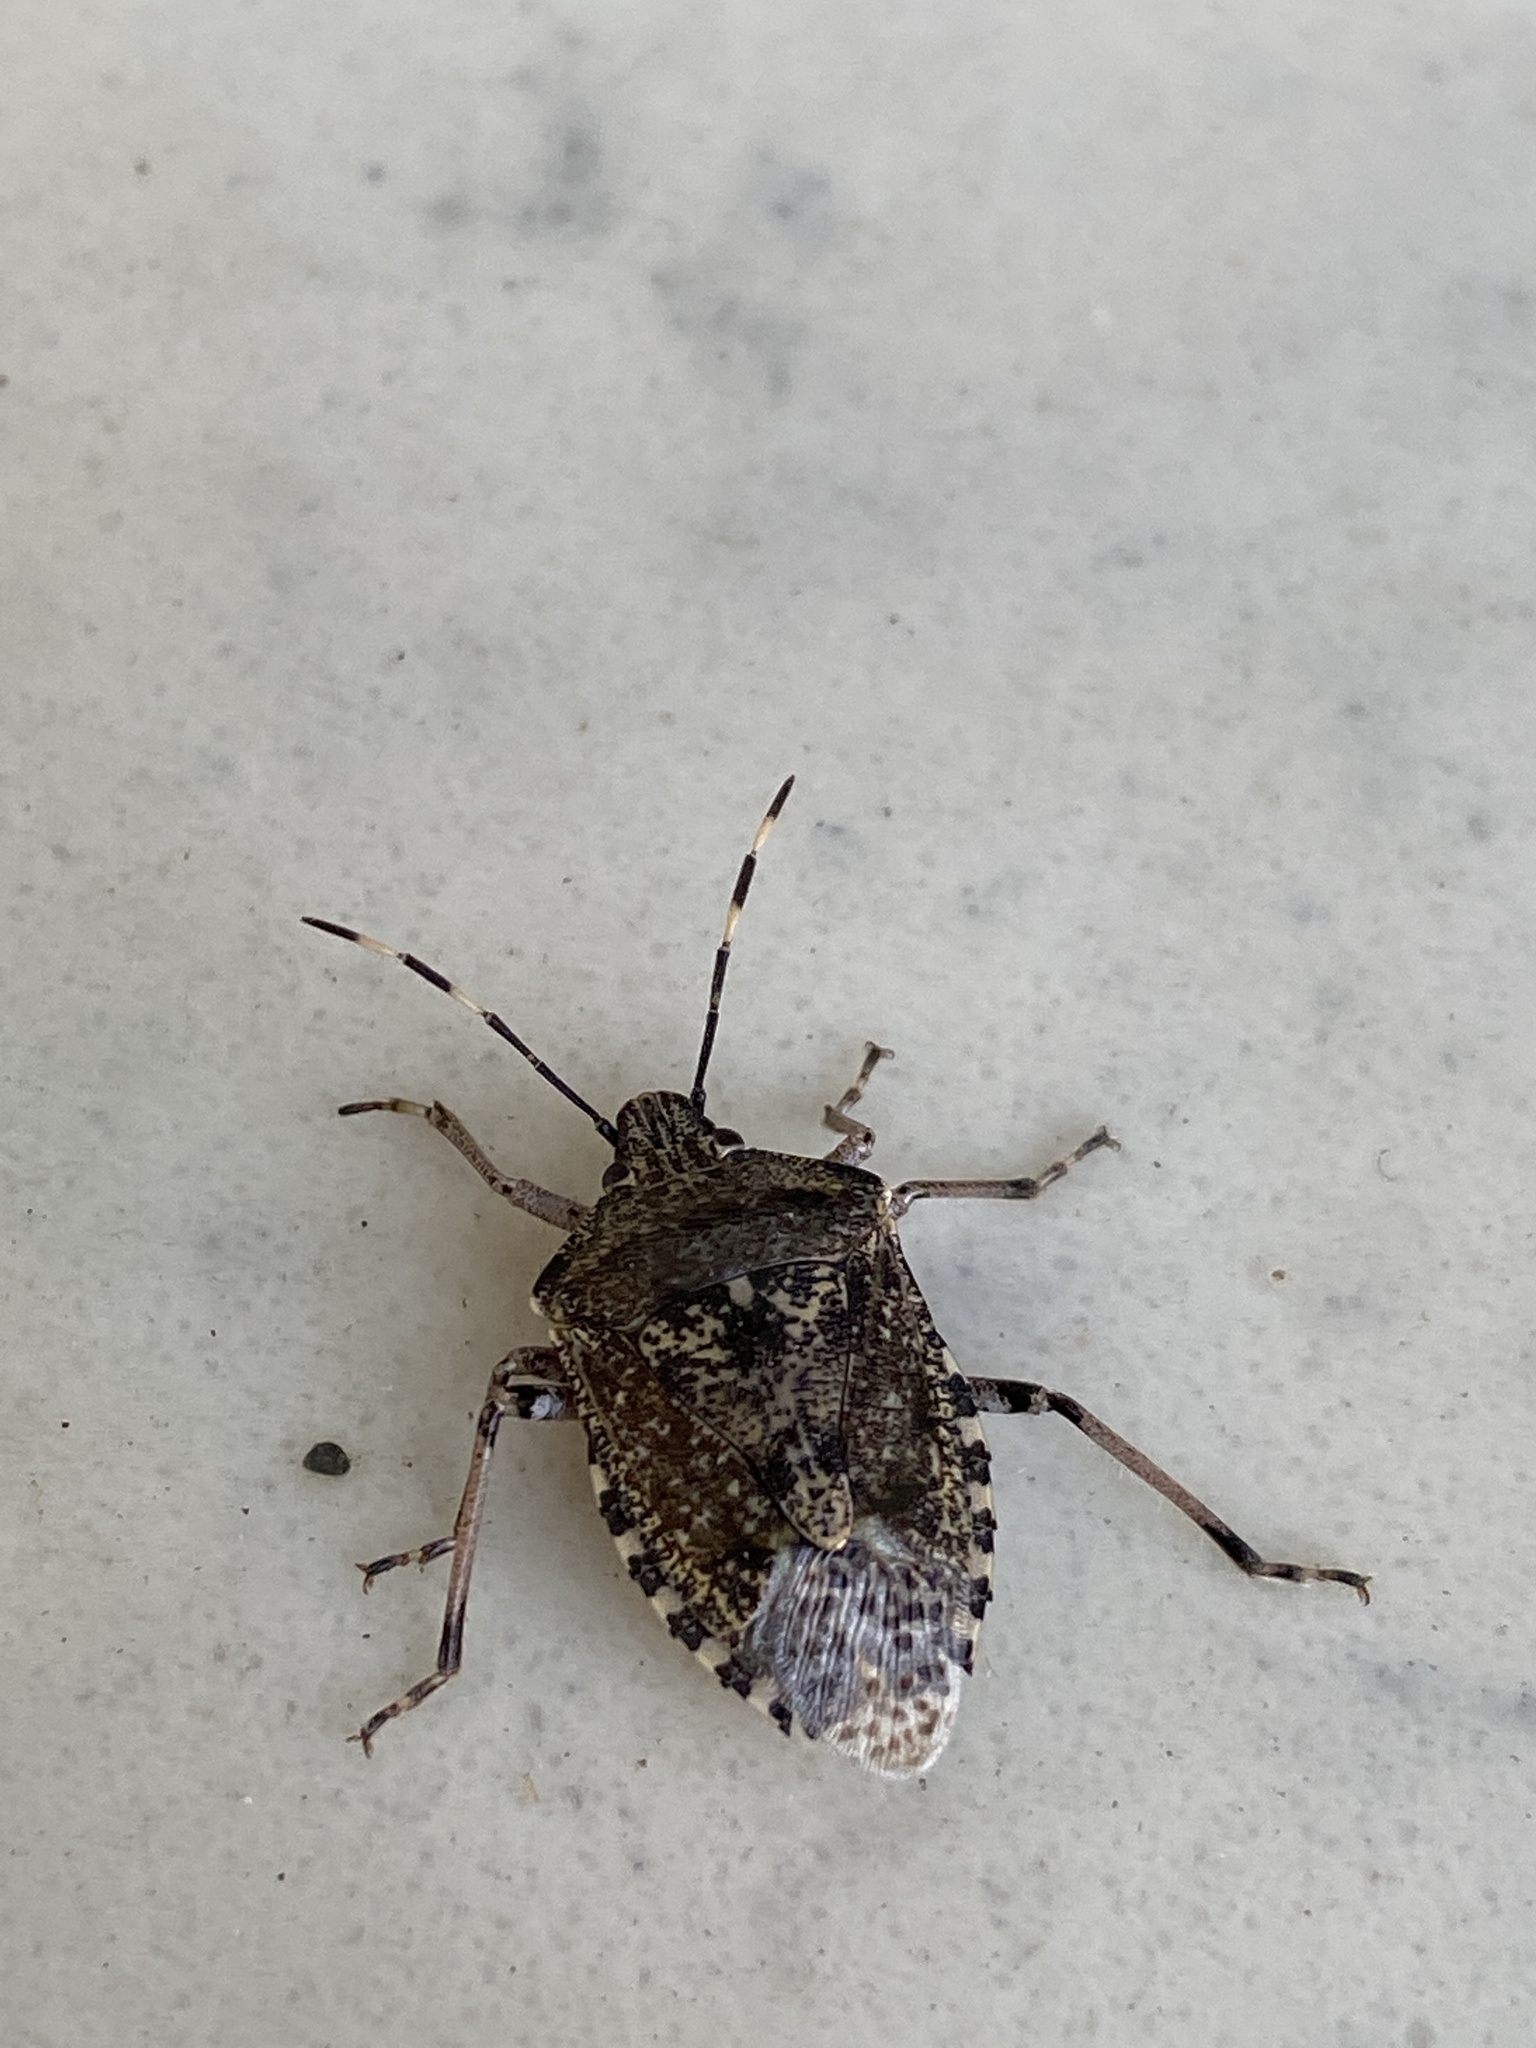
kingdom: Animalia
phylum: Arthropoda
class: Insecta
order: Hemiptera
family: Pentatomidae
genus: Rhaphigaster
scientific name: Rhaphigaster nebulosa
